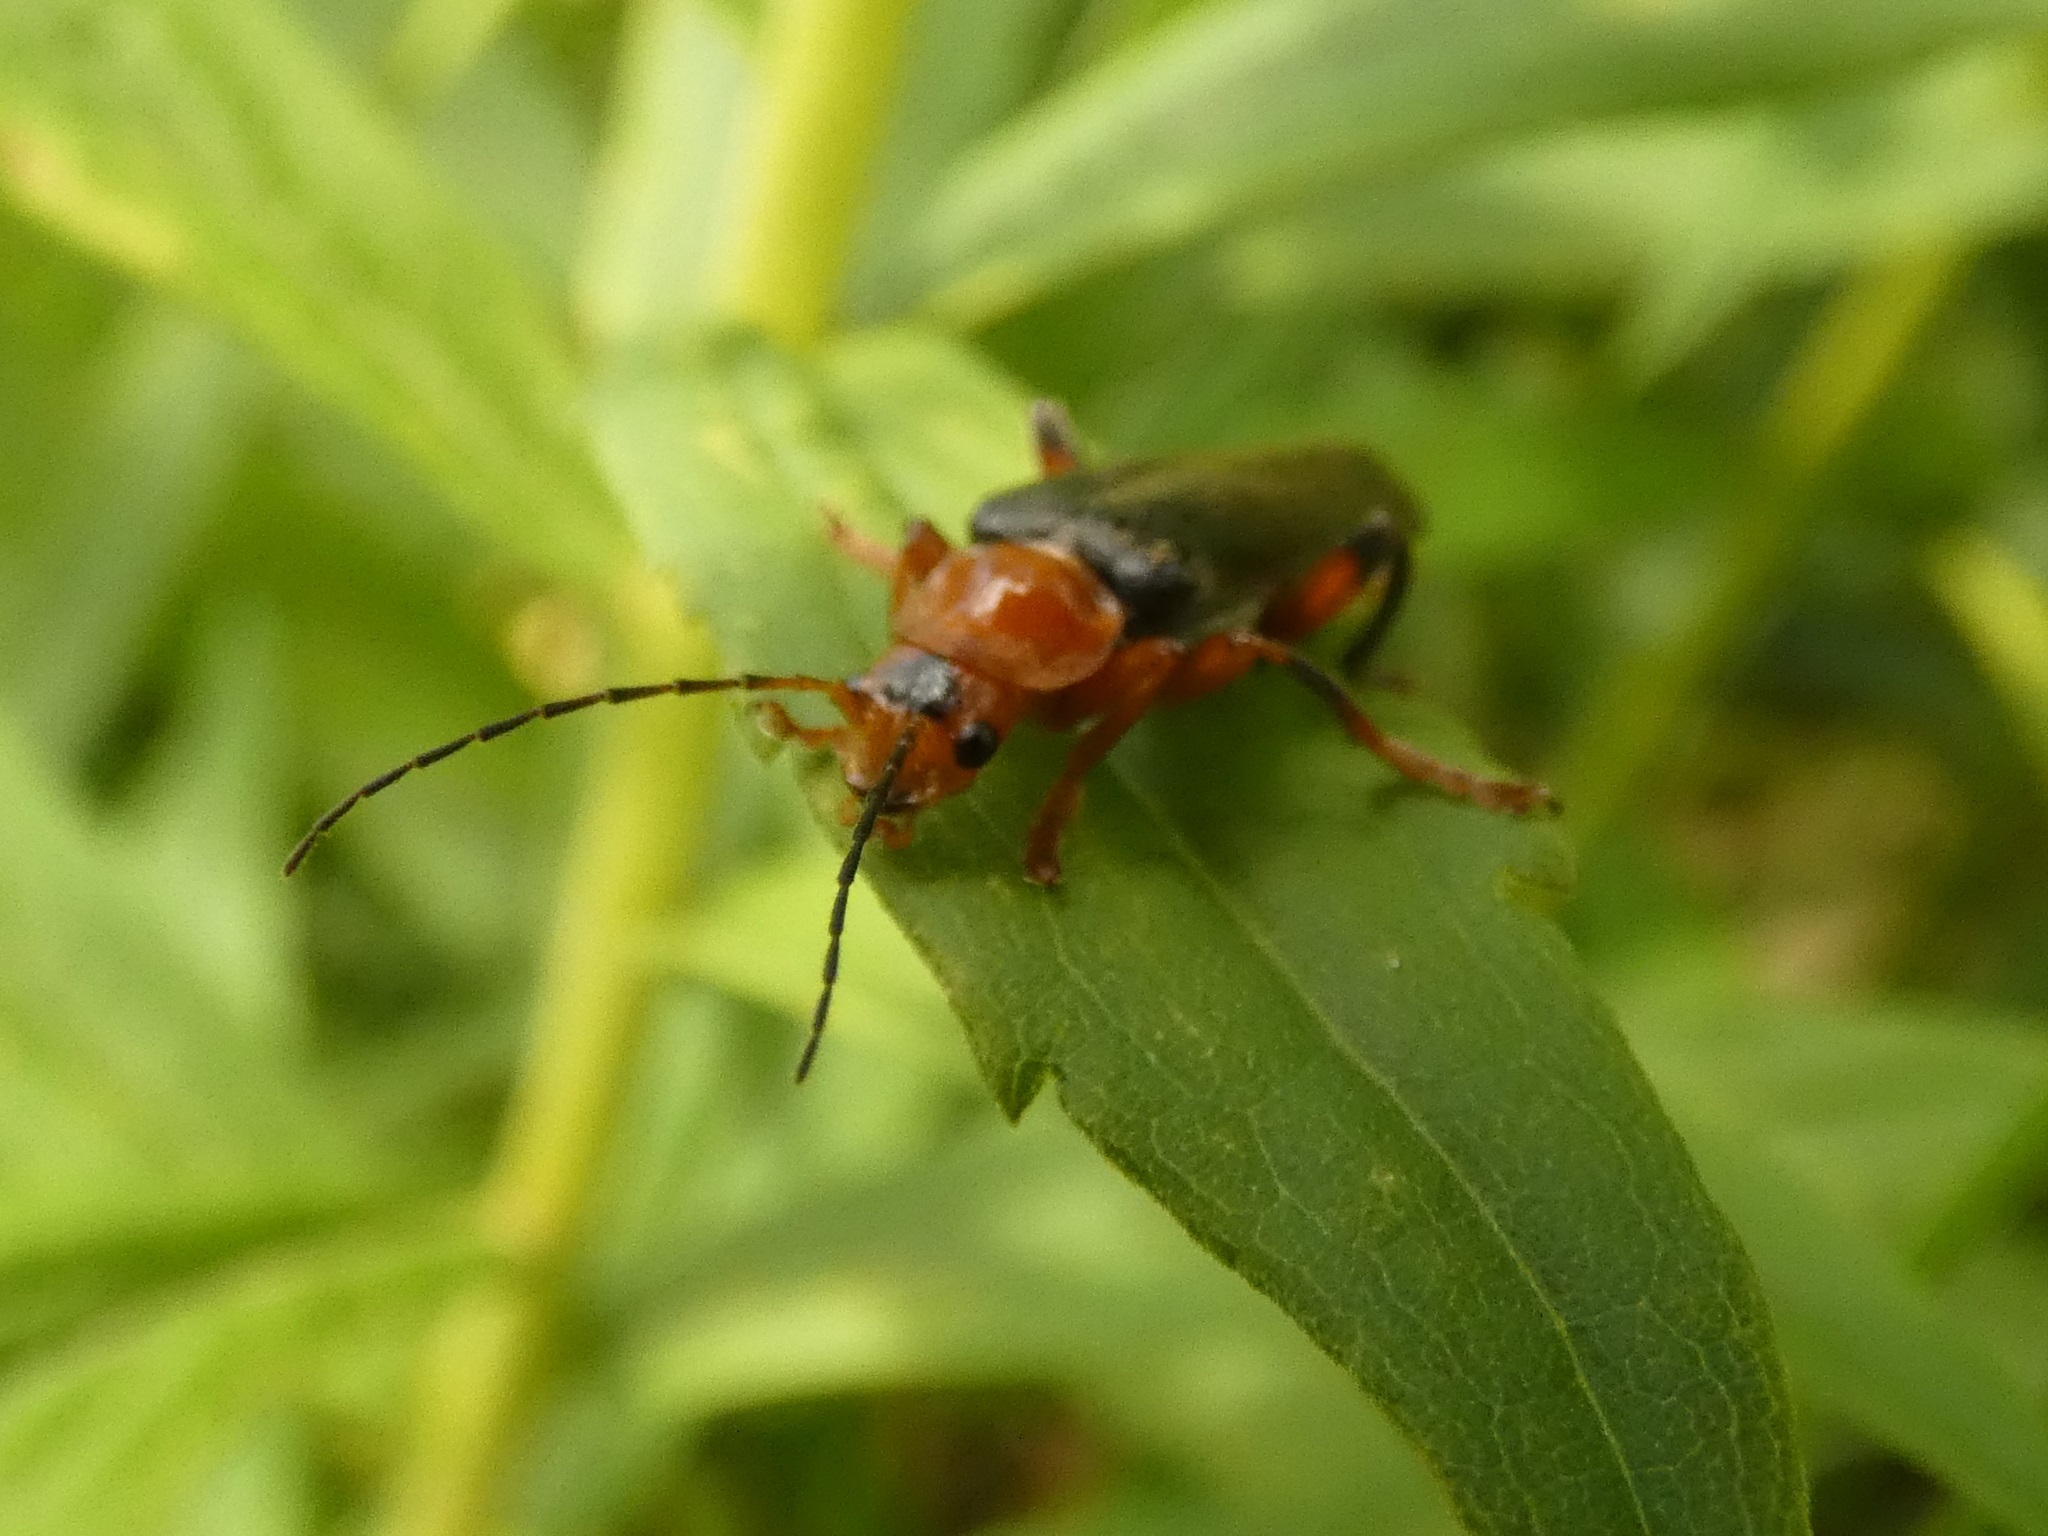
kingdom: Animalia
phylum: Arthropoda
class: Insecta
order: Coleoptera
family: Cantharidae
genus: Cantharis
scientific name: Cantharis livida
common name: Livid soldier beetle
